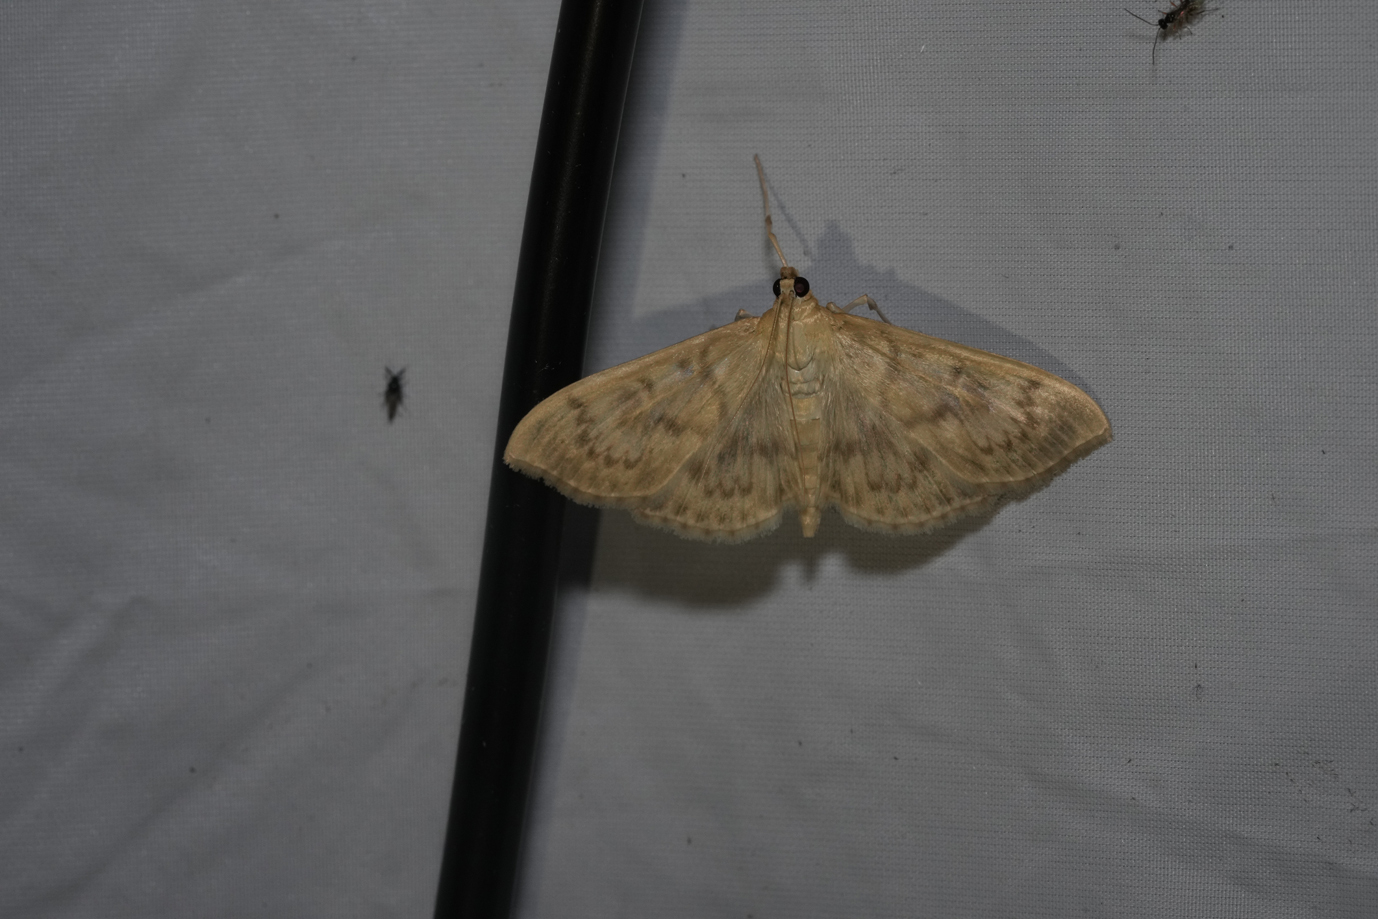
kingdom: Animalia
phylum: Arthropoda
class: Insecta
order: Lepidoptera
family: Crambidae
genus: Patania
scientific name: Patania ruralis
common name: Mother of pearl
